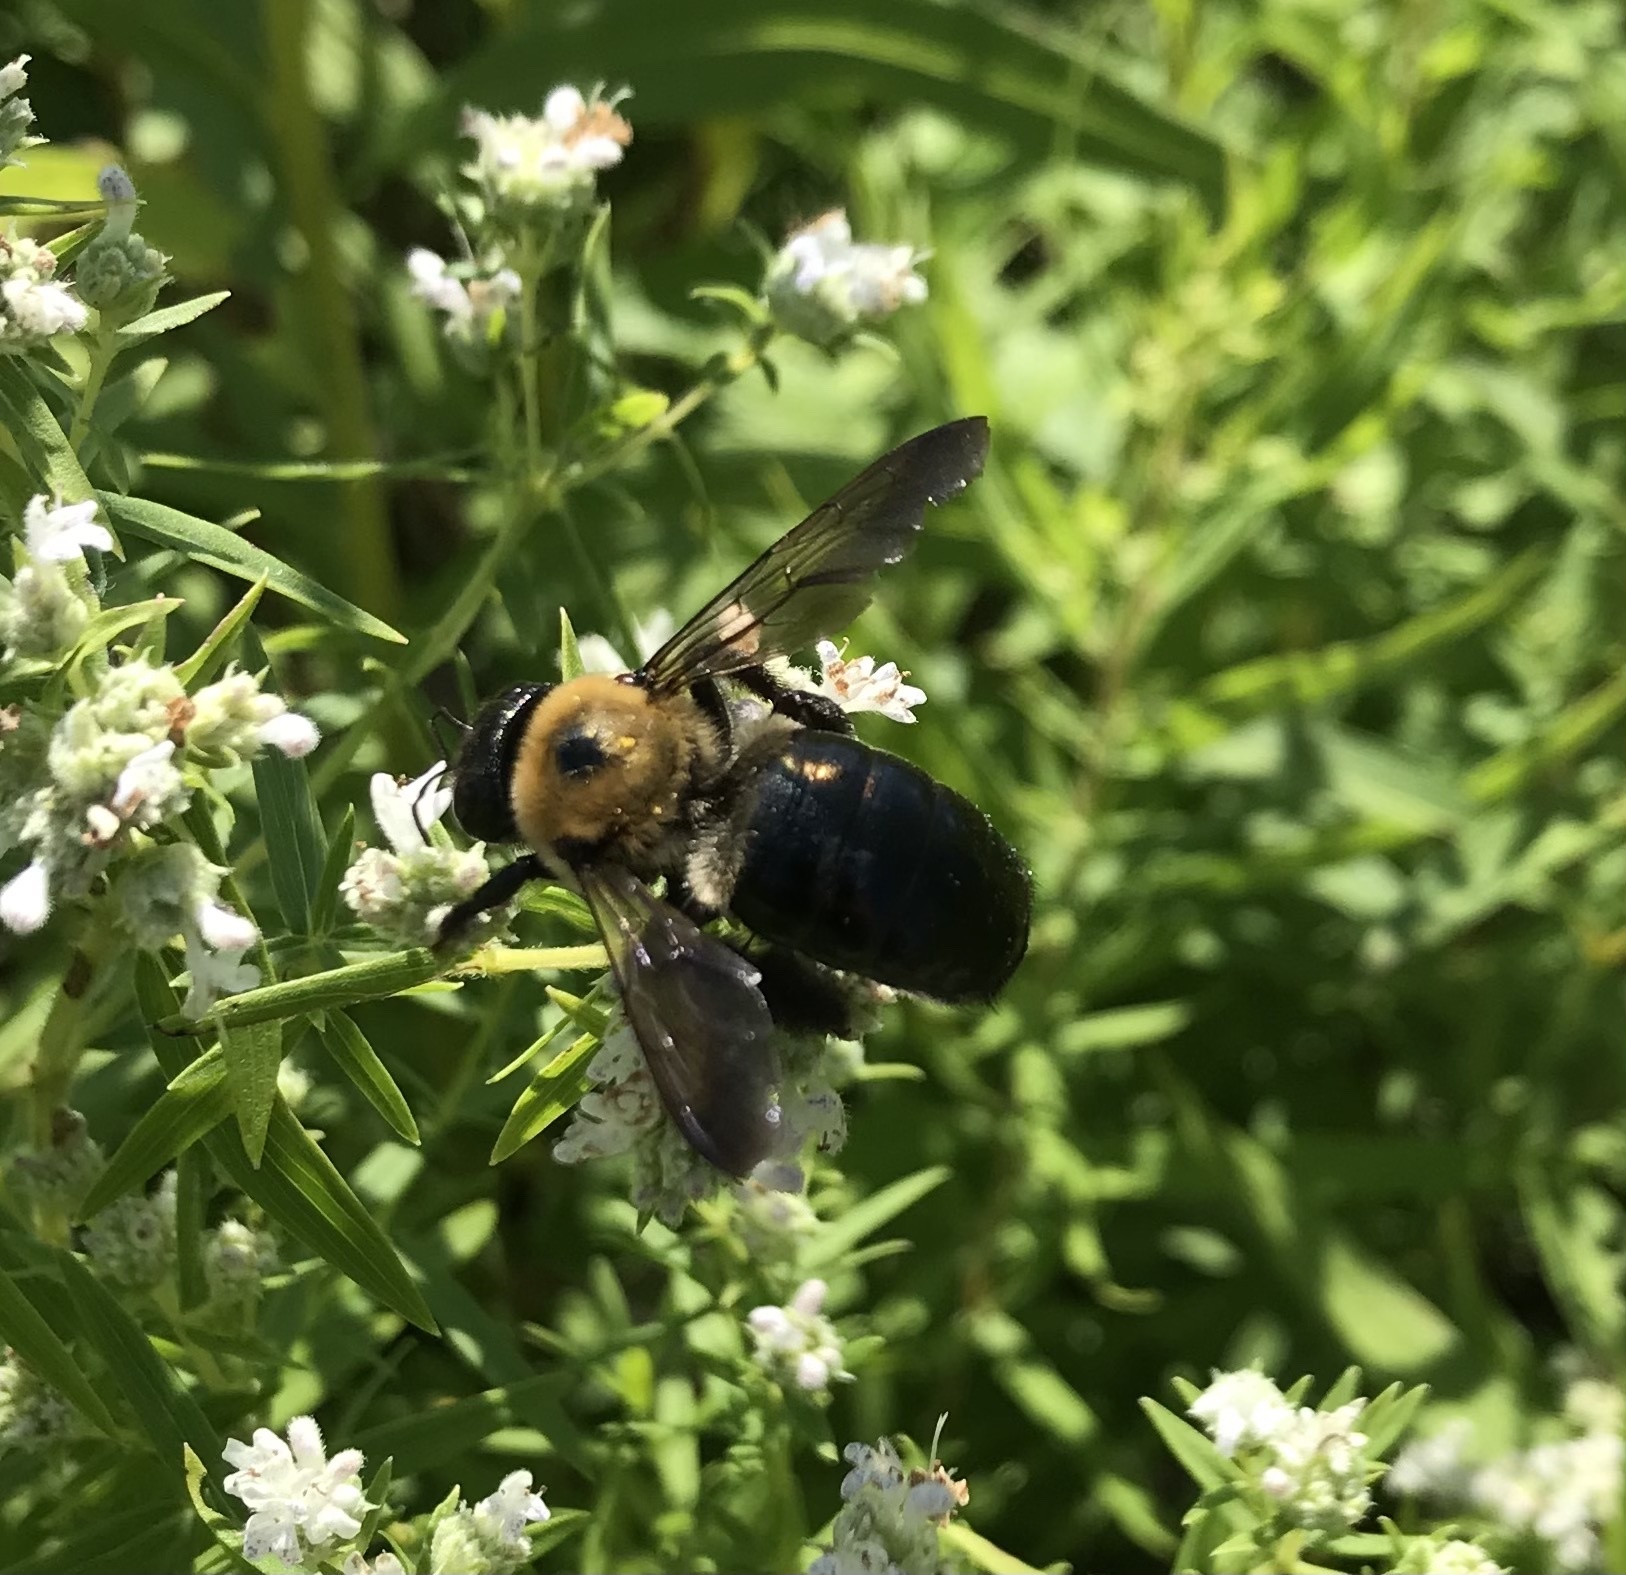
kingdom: Animalia
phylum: Arthropoda
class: Insecta
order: Hymenoptera
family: Apidae
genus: Xylocopa
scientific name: Xylocopa virginica
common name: Carpenter bee
